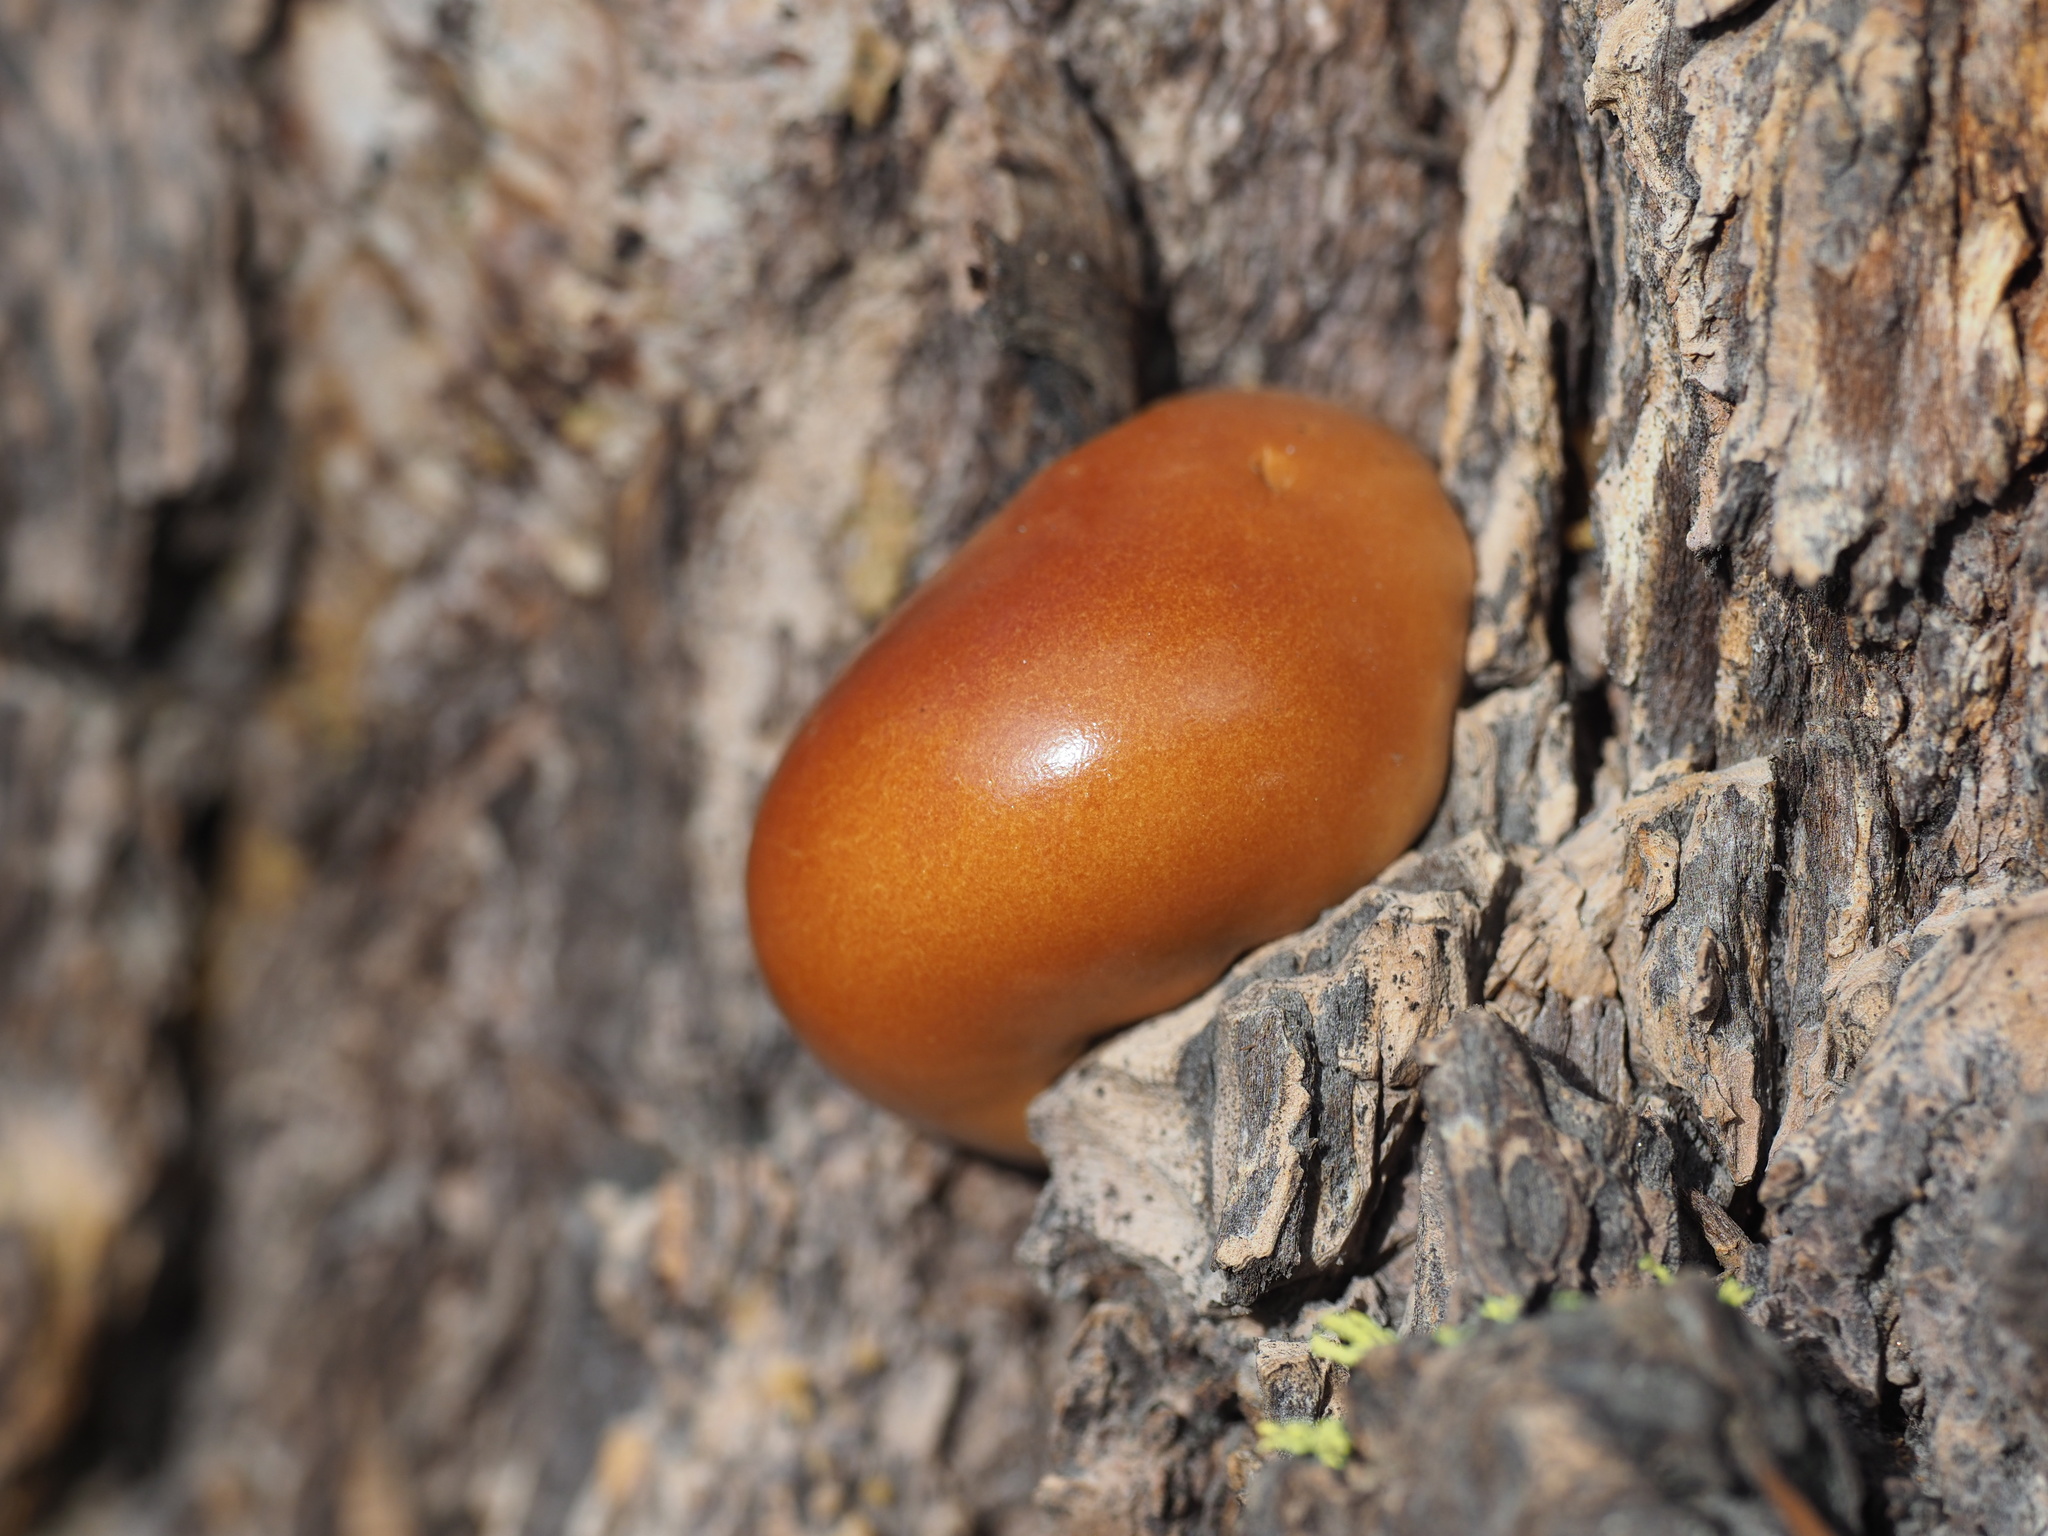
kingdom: Fungi
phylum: Basidiomycota
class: Agaricomycetes
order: Polyporales
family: Polyporaceae
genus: Cryptoporus
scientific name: Cryptoporus volvatus
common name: Veiled polypore
